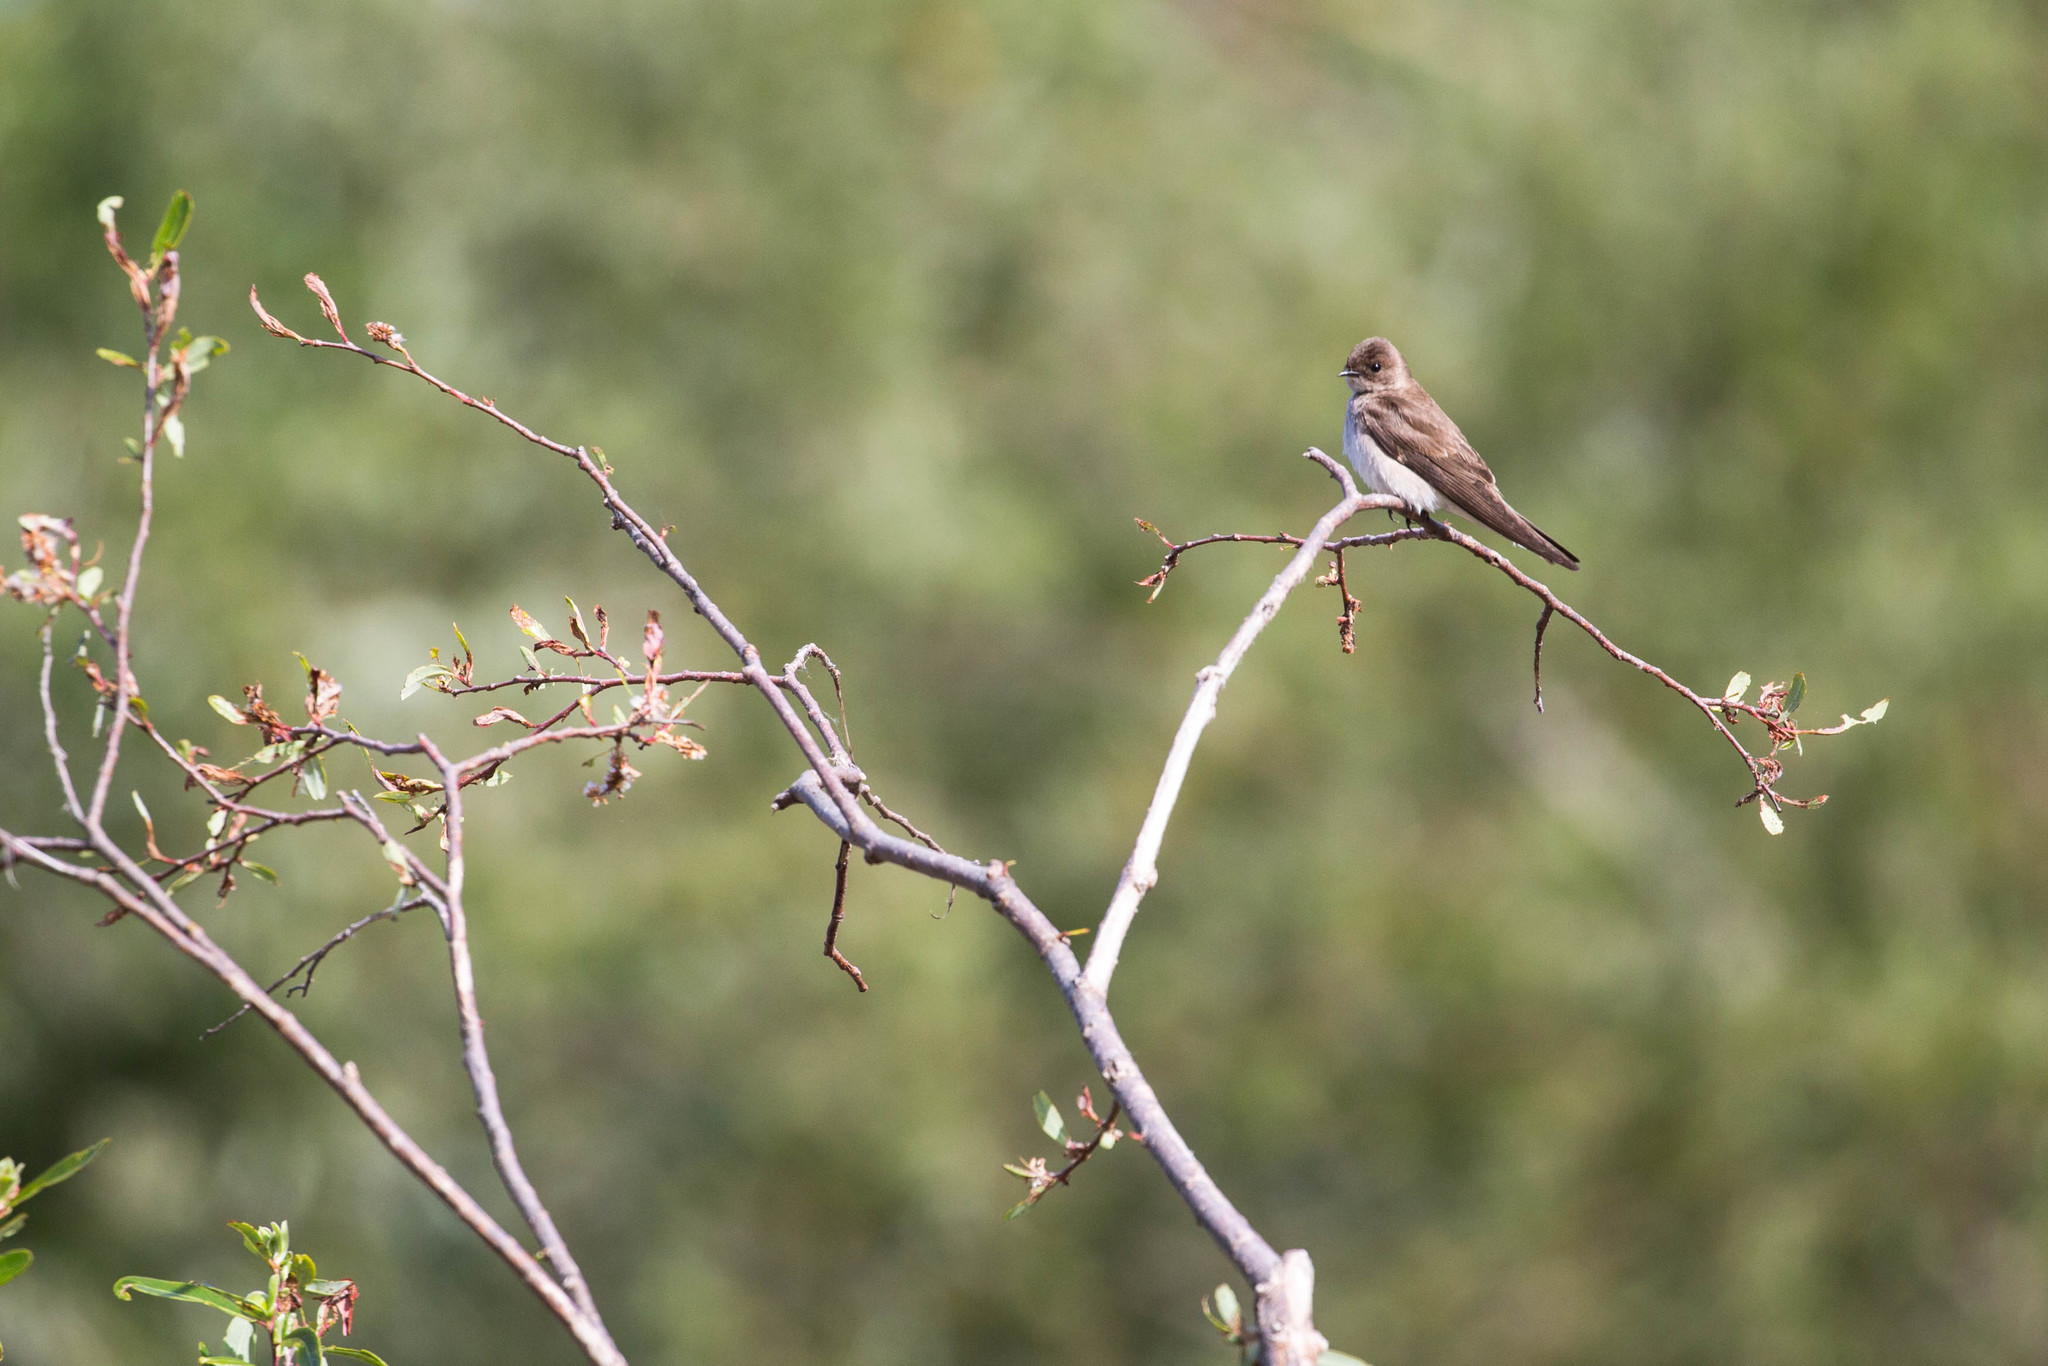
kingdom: Animalia
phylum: Chordata
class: Aves
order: Passeriformes
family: Hirundinidae
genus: Stelgidopteryx
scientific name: Stelgidopteryx serripennis
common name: Northern rough-winged swallow
